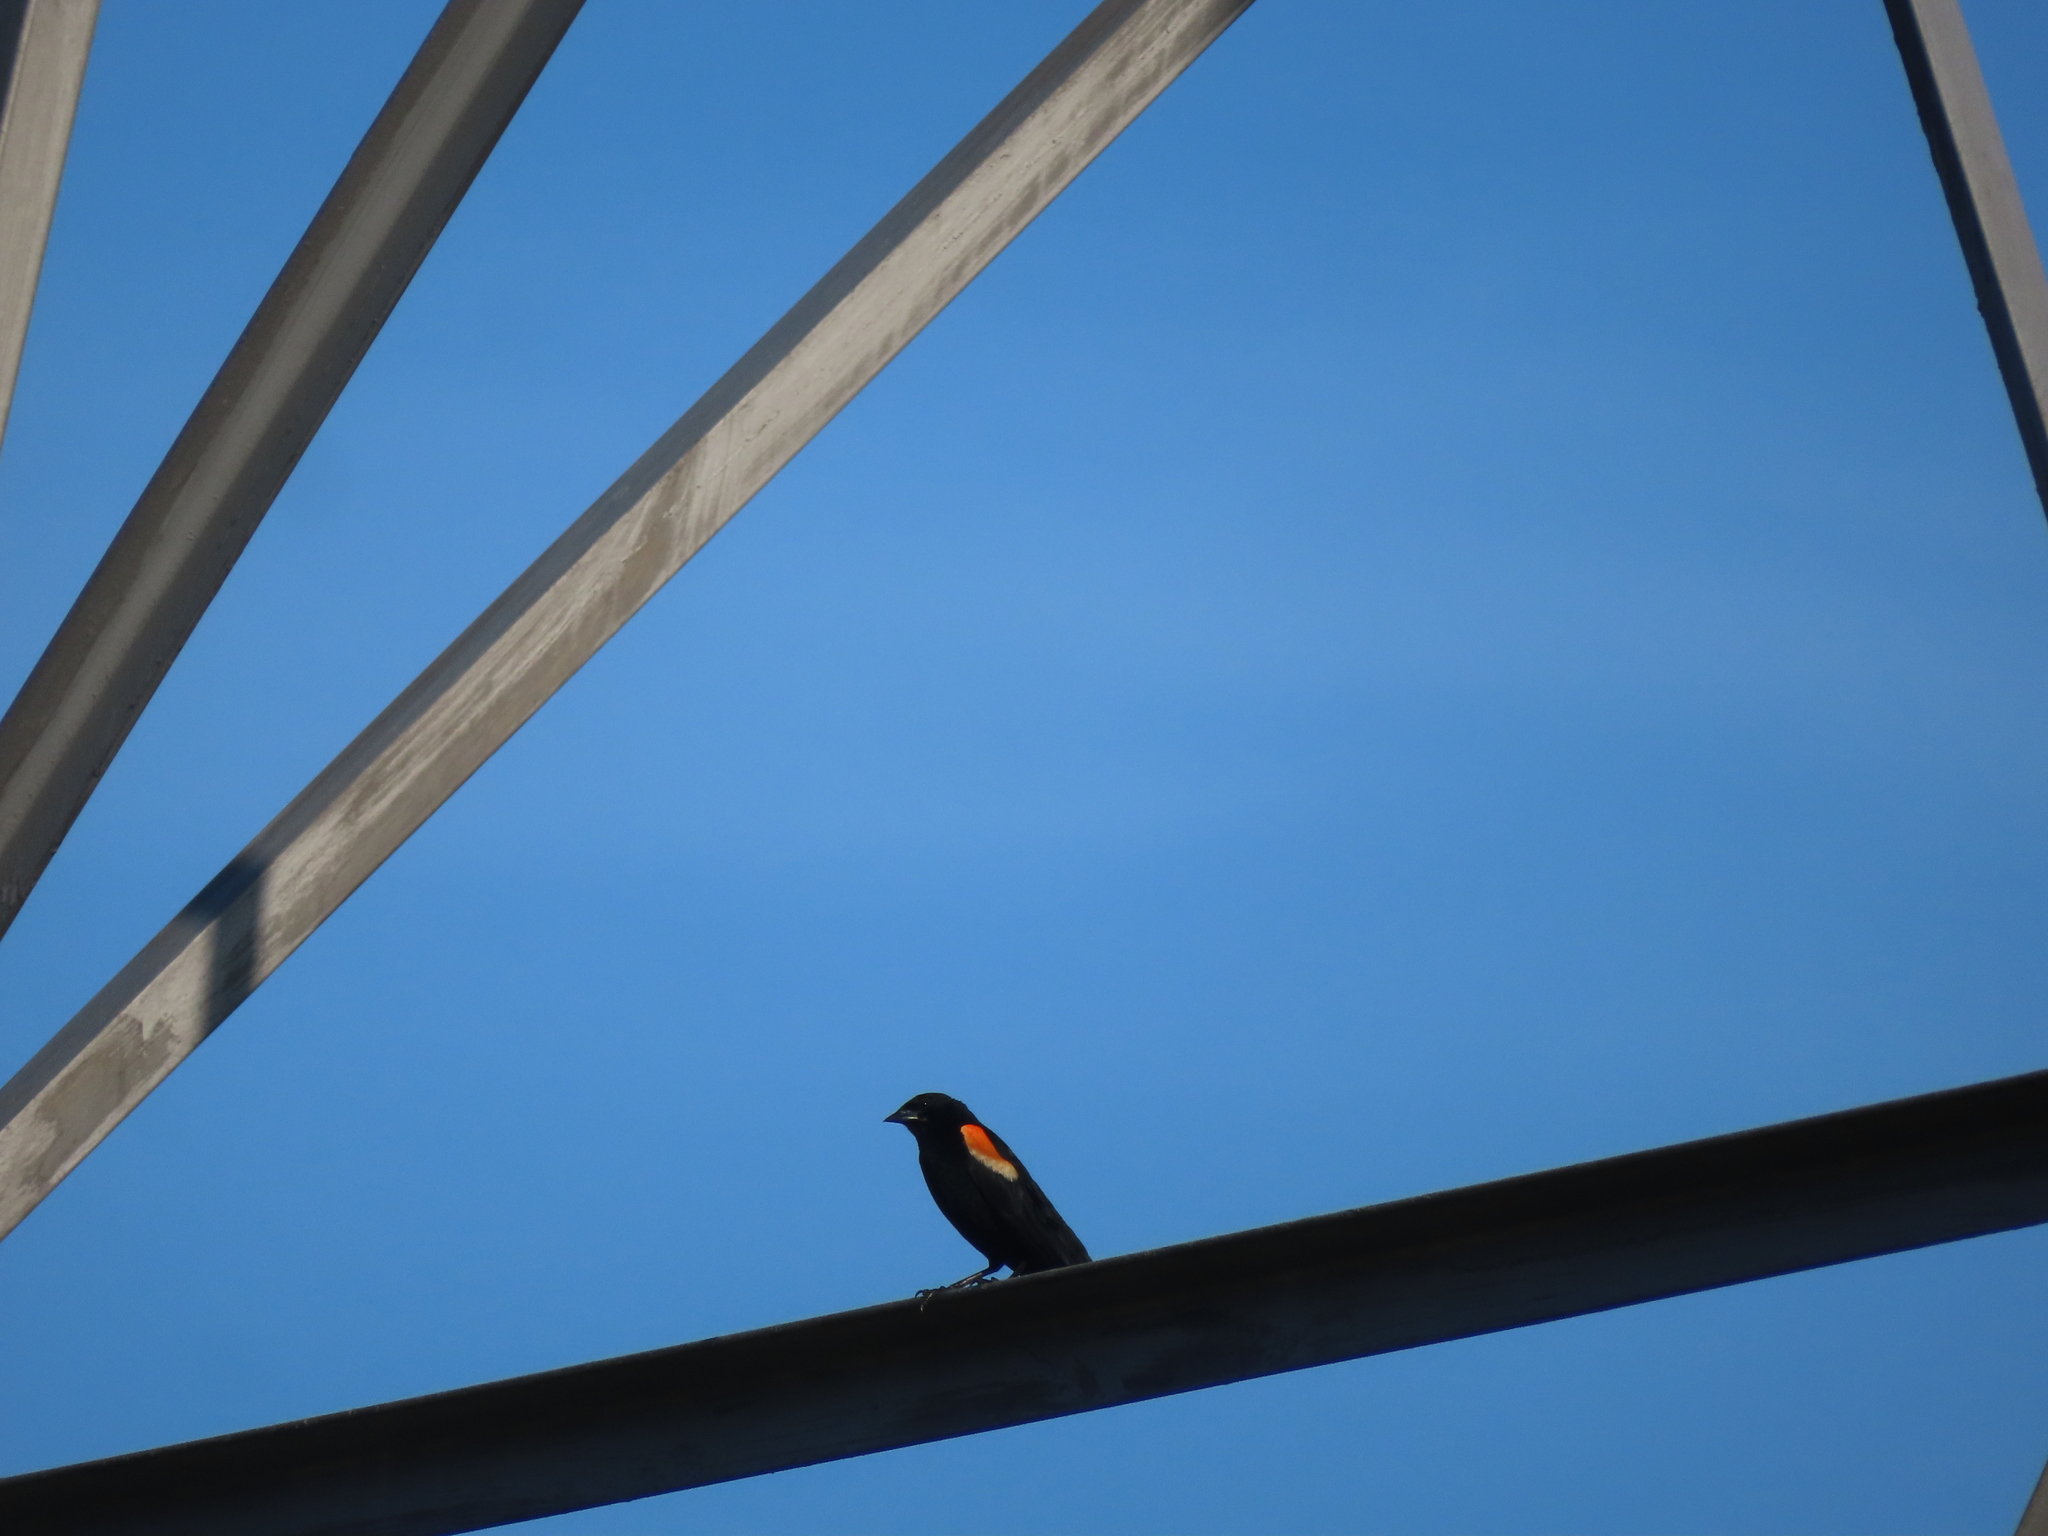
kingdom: Animalia
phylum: Chordata
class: Aves
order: Passeriformes
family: Icteridae
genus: Agelaius
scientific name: Agelaius phoeniceus
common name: Red-winged blackbird
